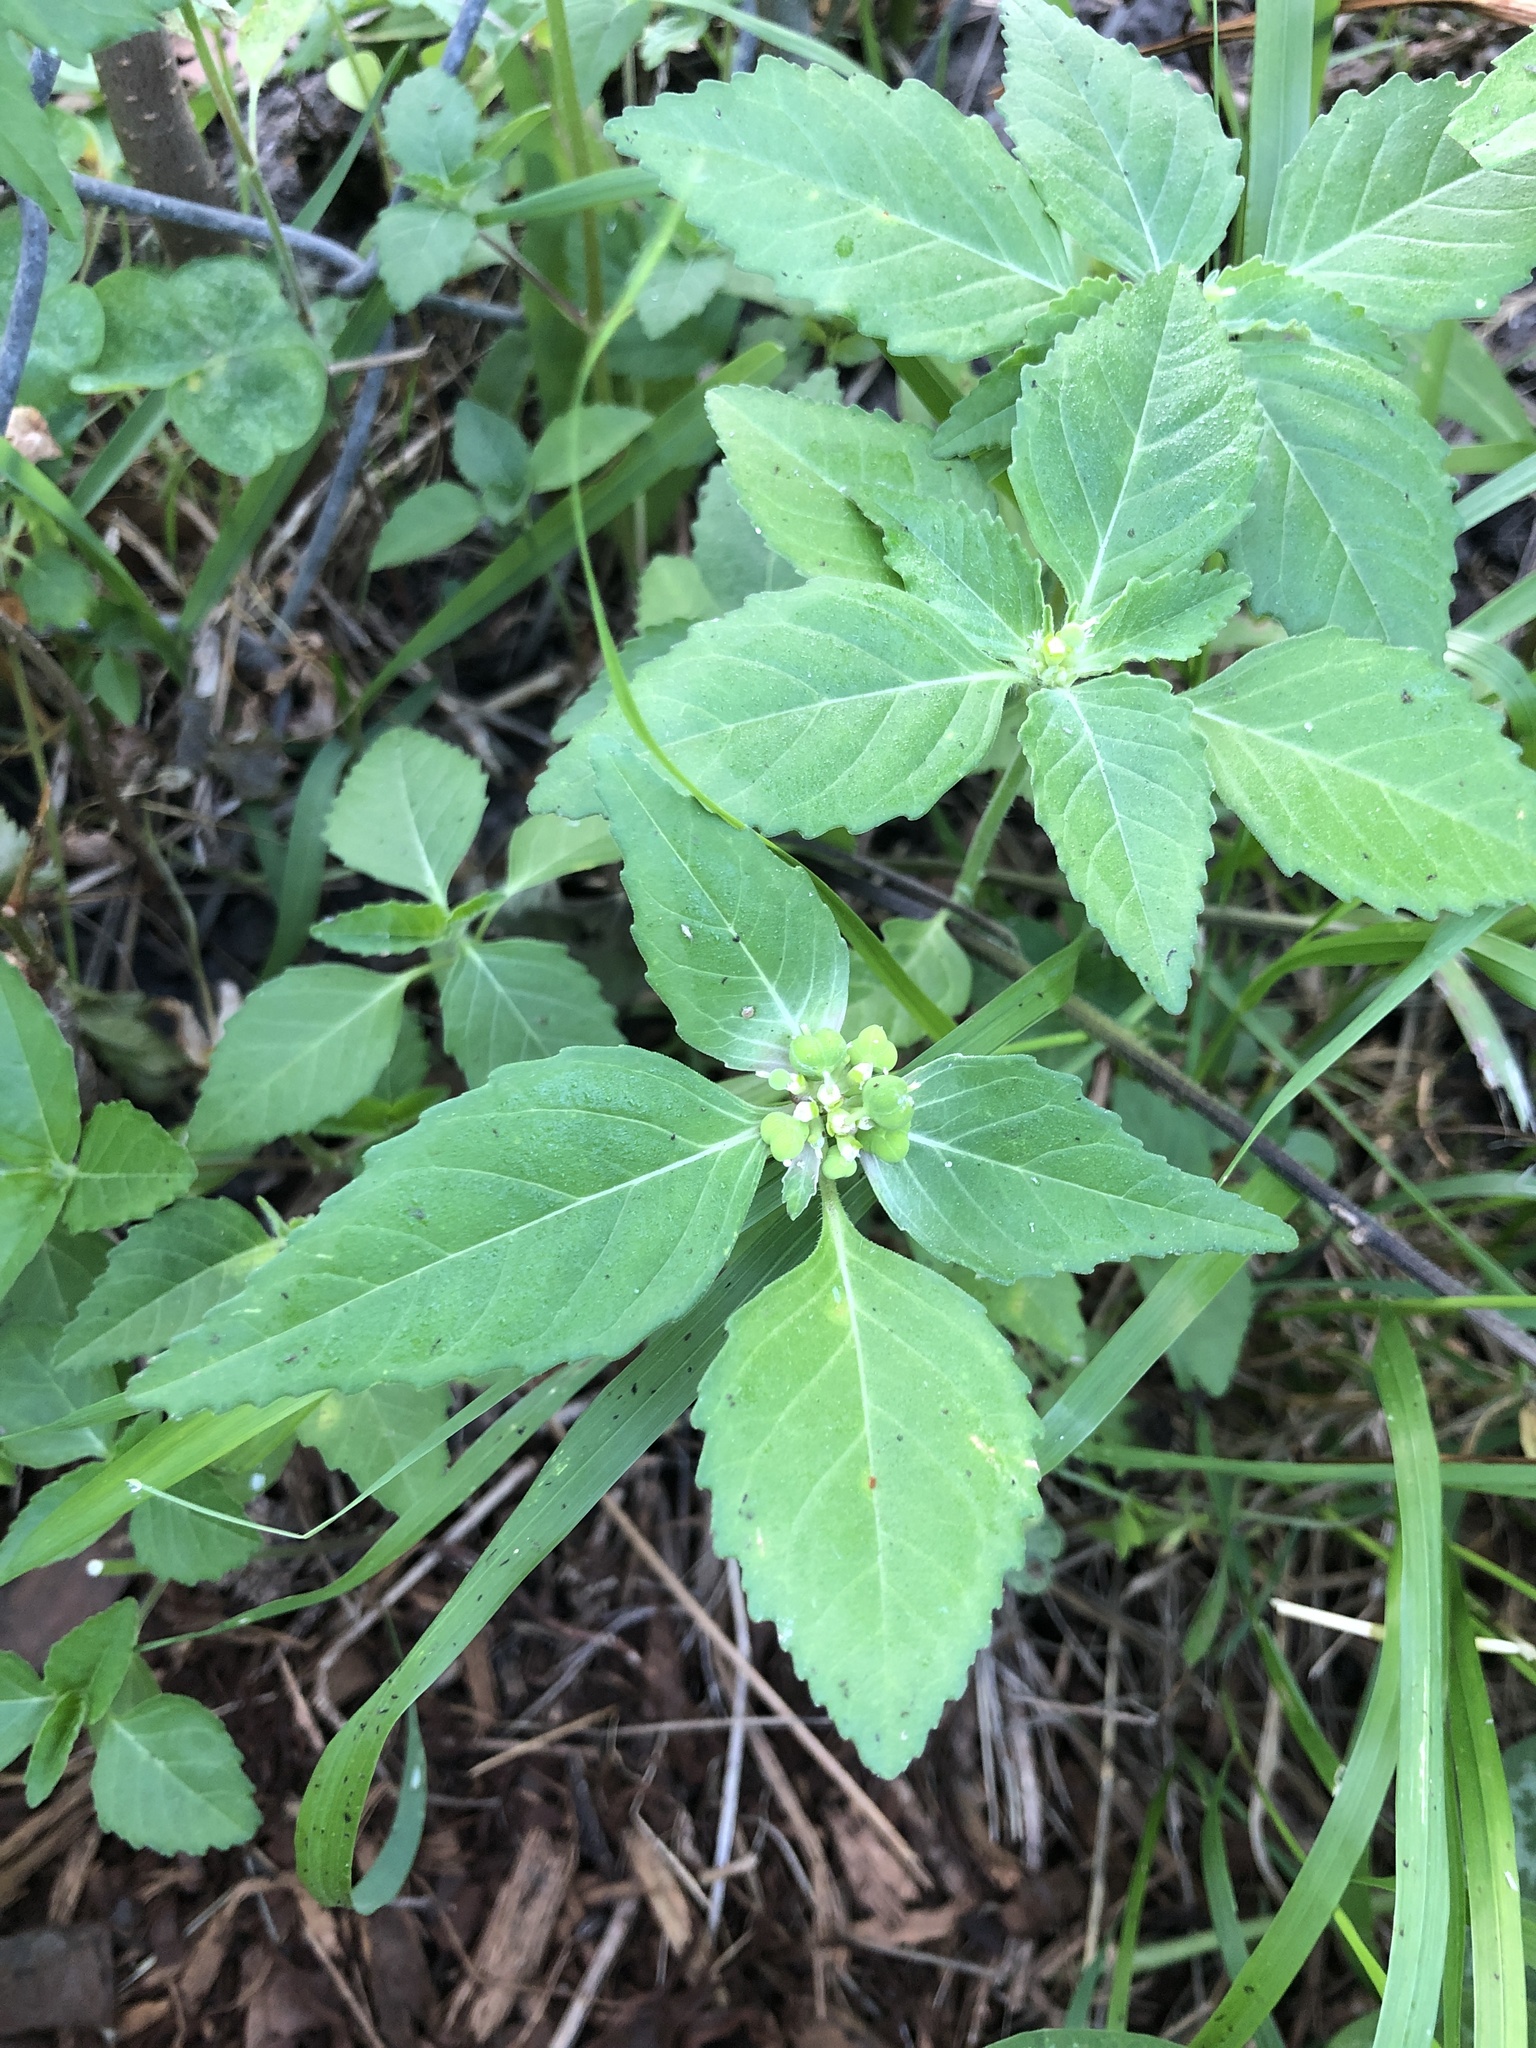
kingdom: Plantae
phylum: Tracheophyta
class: Magnoliopsida
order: Malpighiales
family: Euphorbiaceae
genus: Euphorbia
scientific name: Euphorbia dentata
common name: Dentate spurge
